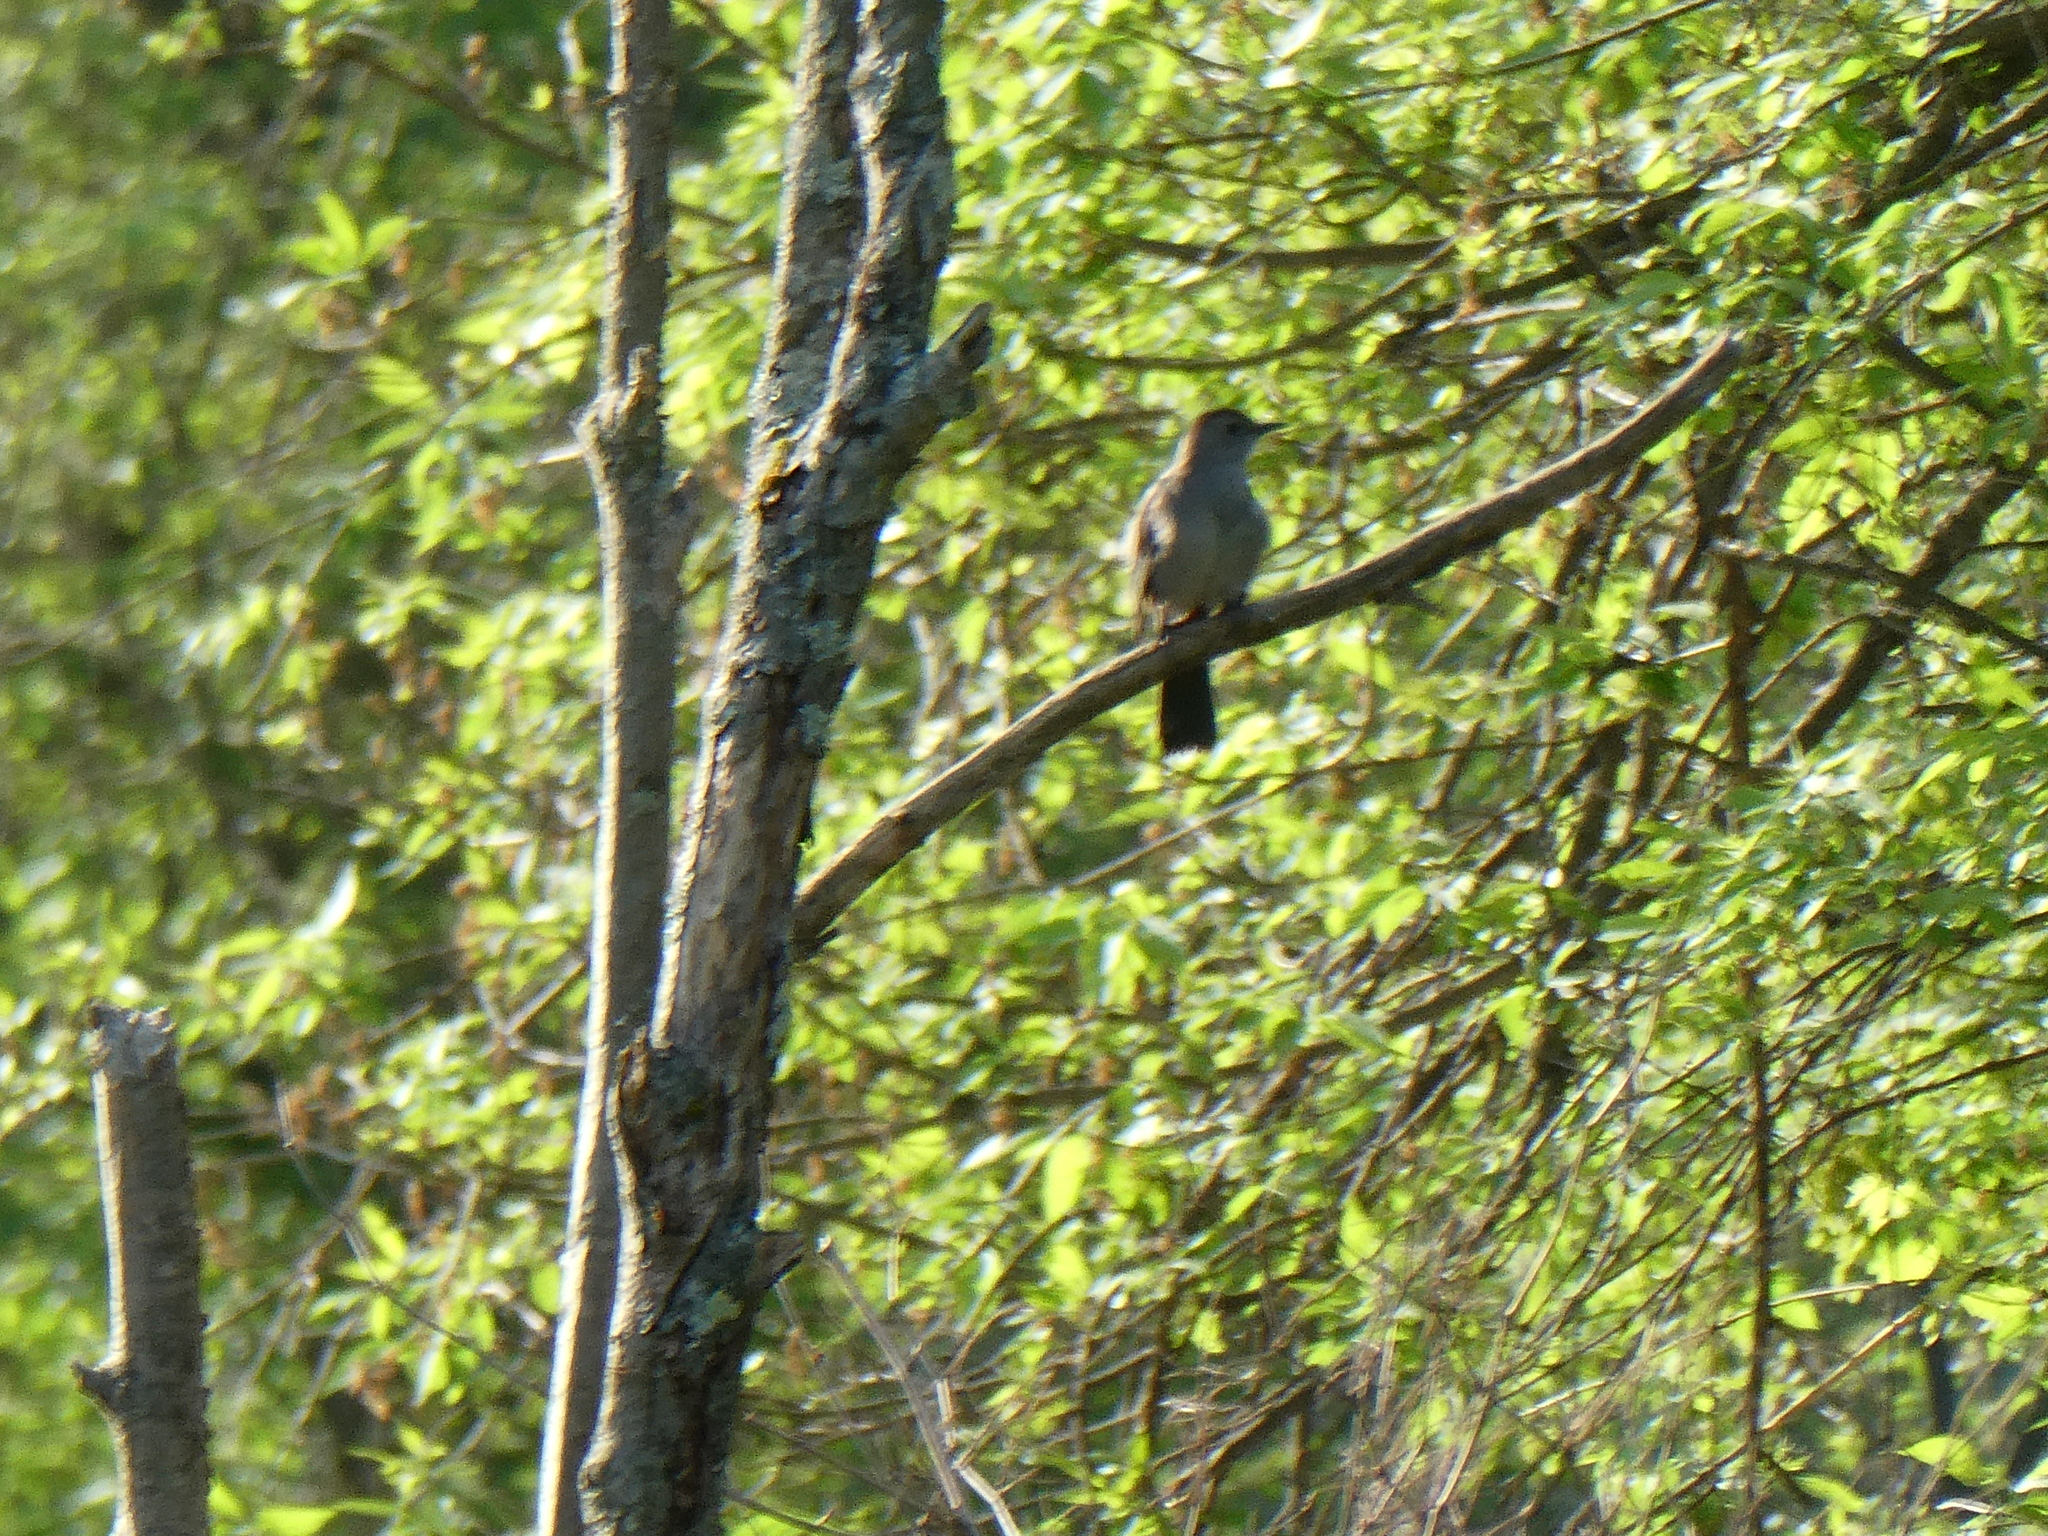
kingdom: Animalia
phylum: Chordata
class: Aves
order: Passeriformes
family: Mimidae
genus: Dumetella
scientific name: Dumetella carolinensis
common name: Gray catbird
